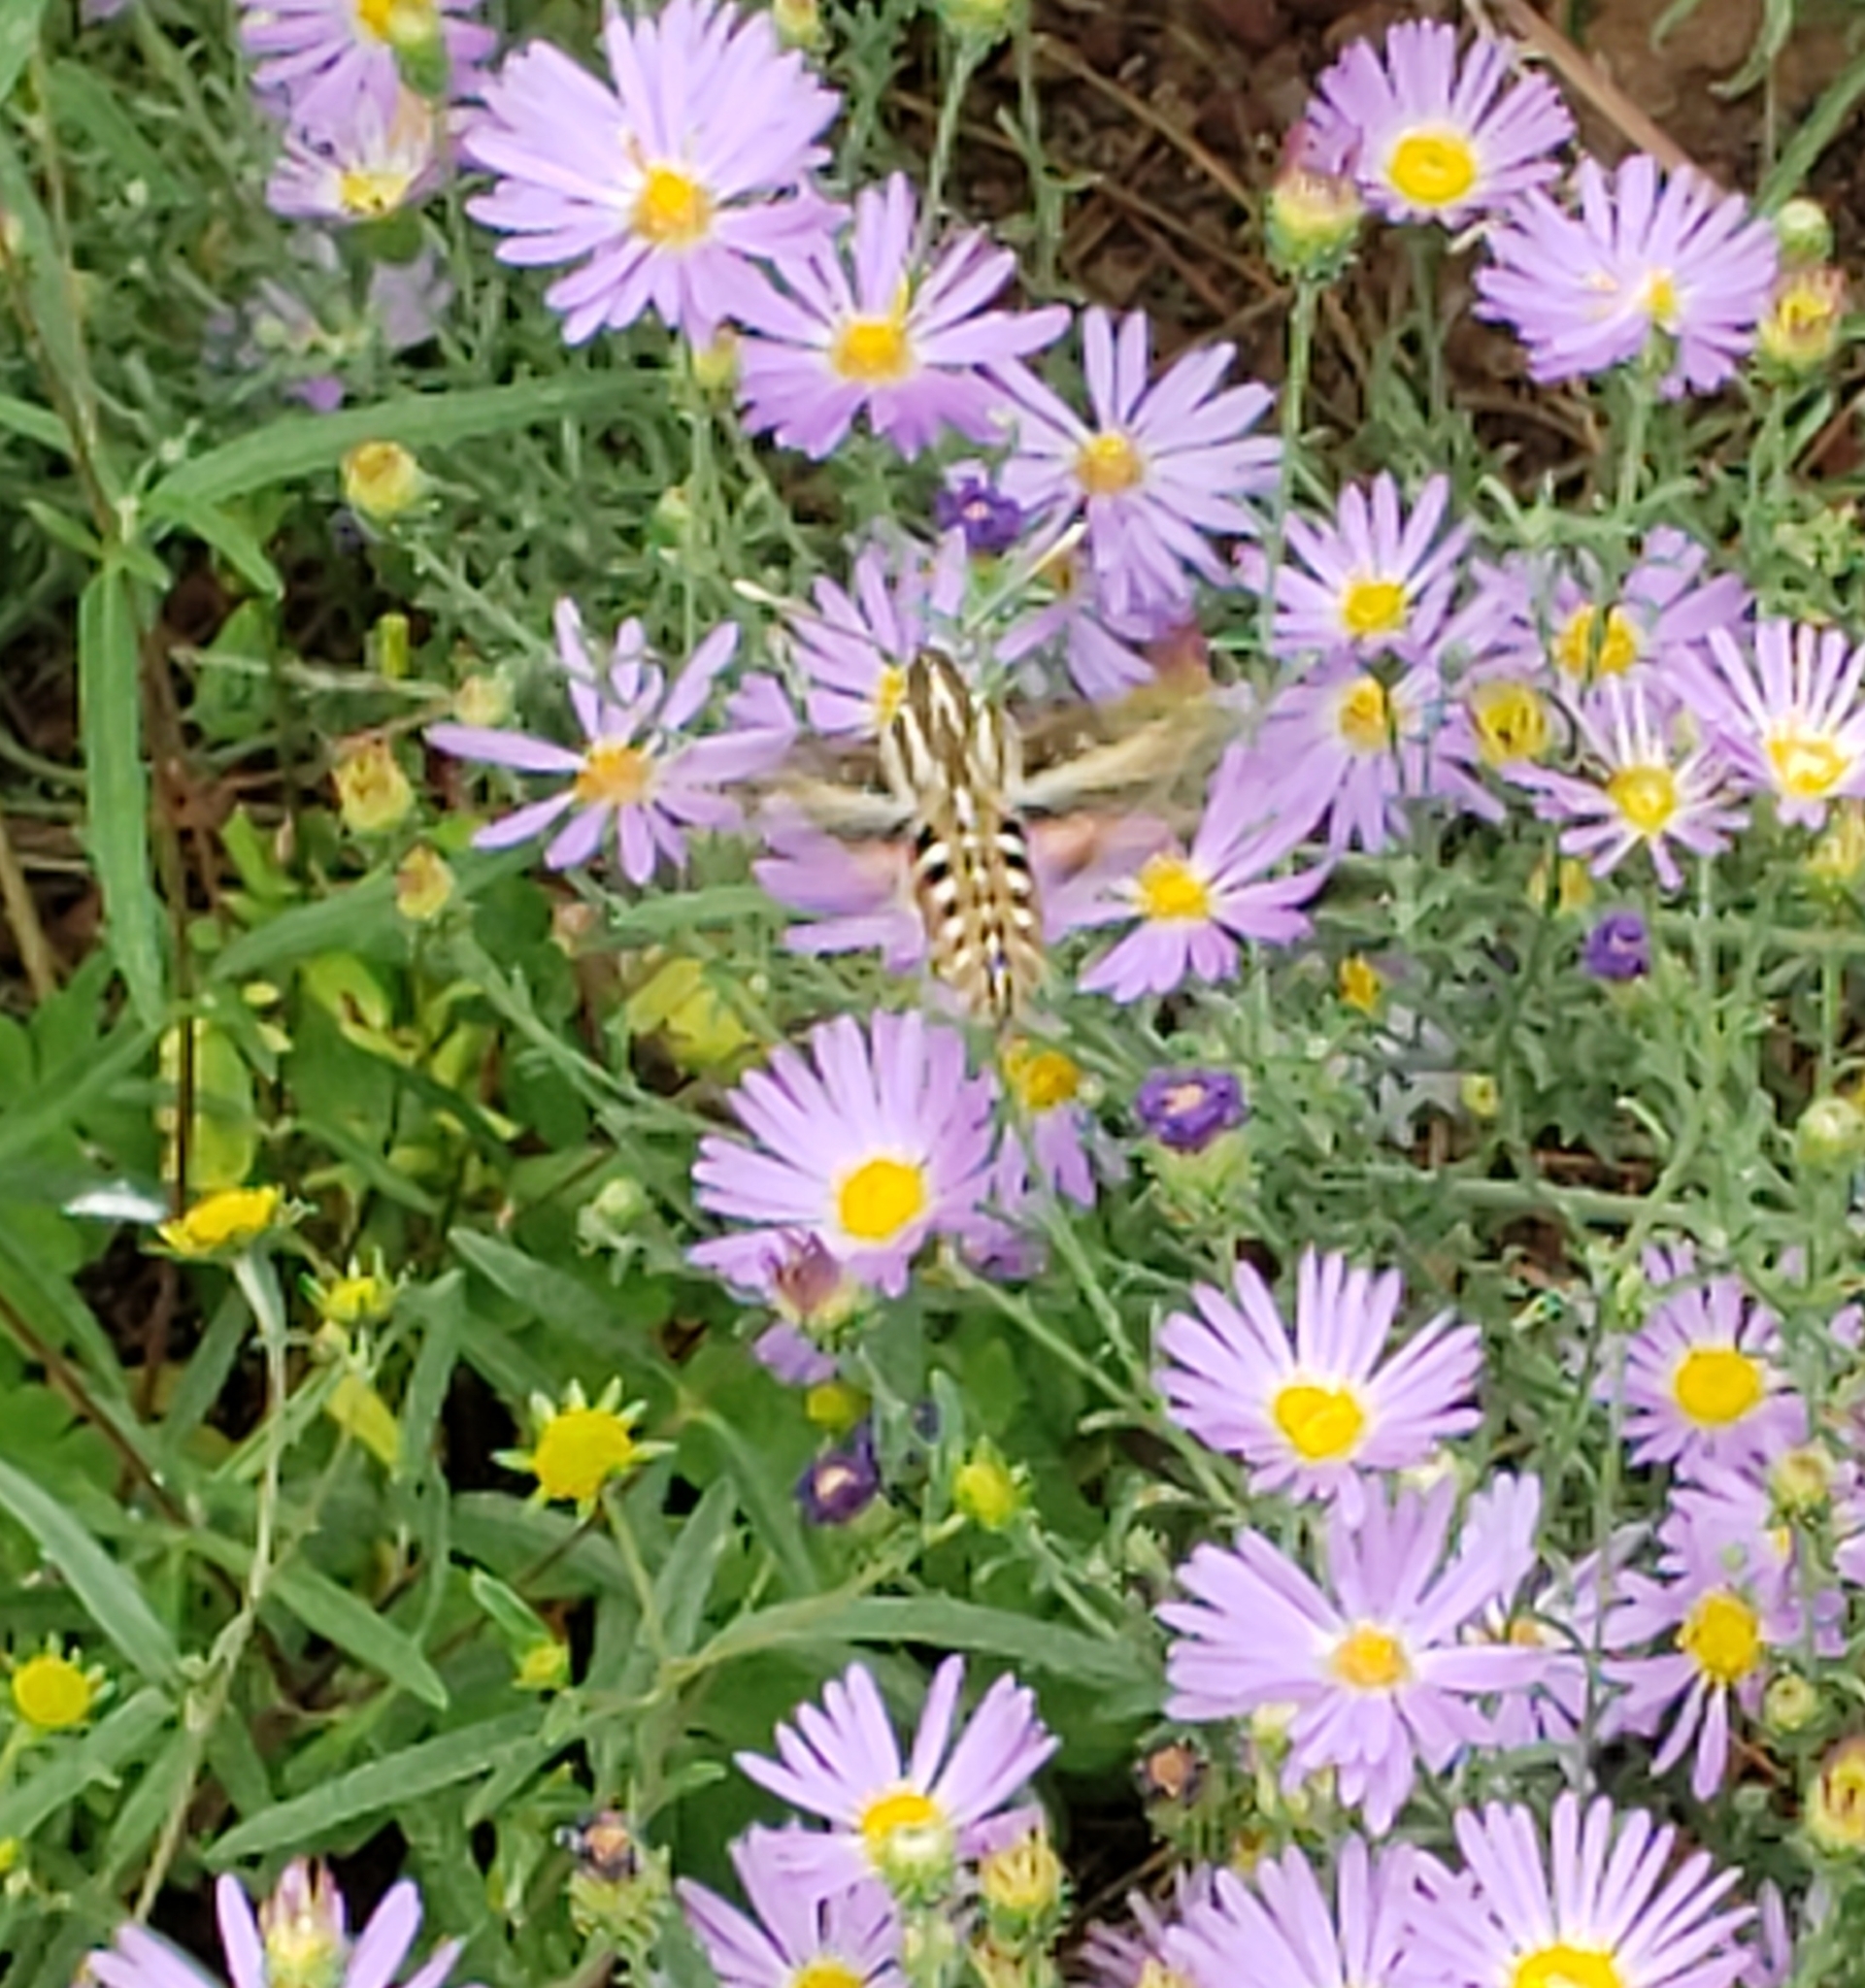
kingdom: Animalia
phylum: Arthropoda
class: Insecta
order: Lepidoptera
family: Sphingidae
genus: Hyles
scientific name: Hyles lineata
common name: White-lined sphinx
